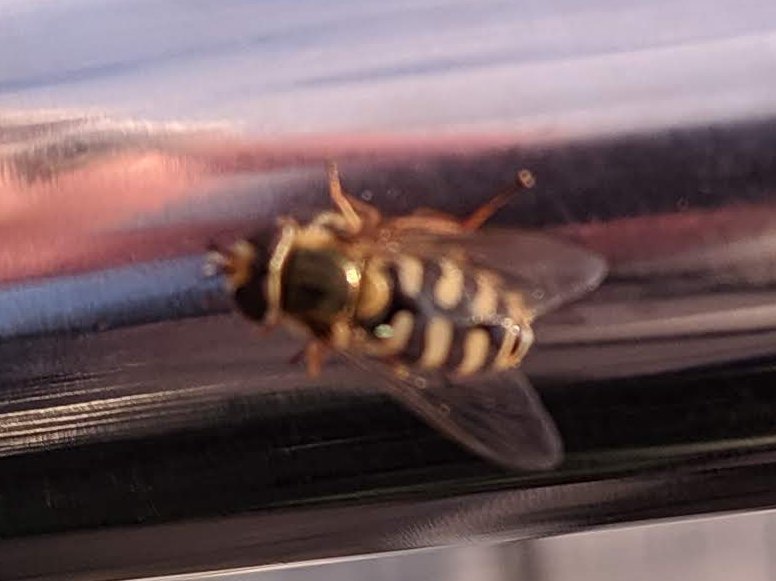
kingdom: Animalia
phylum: Arthropoda
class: Insecta
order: Diptera
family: Syrphidae
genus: Eupeodes
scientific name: Eupeodes corollae
